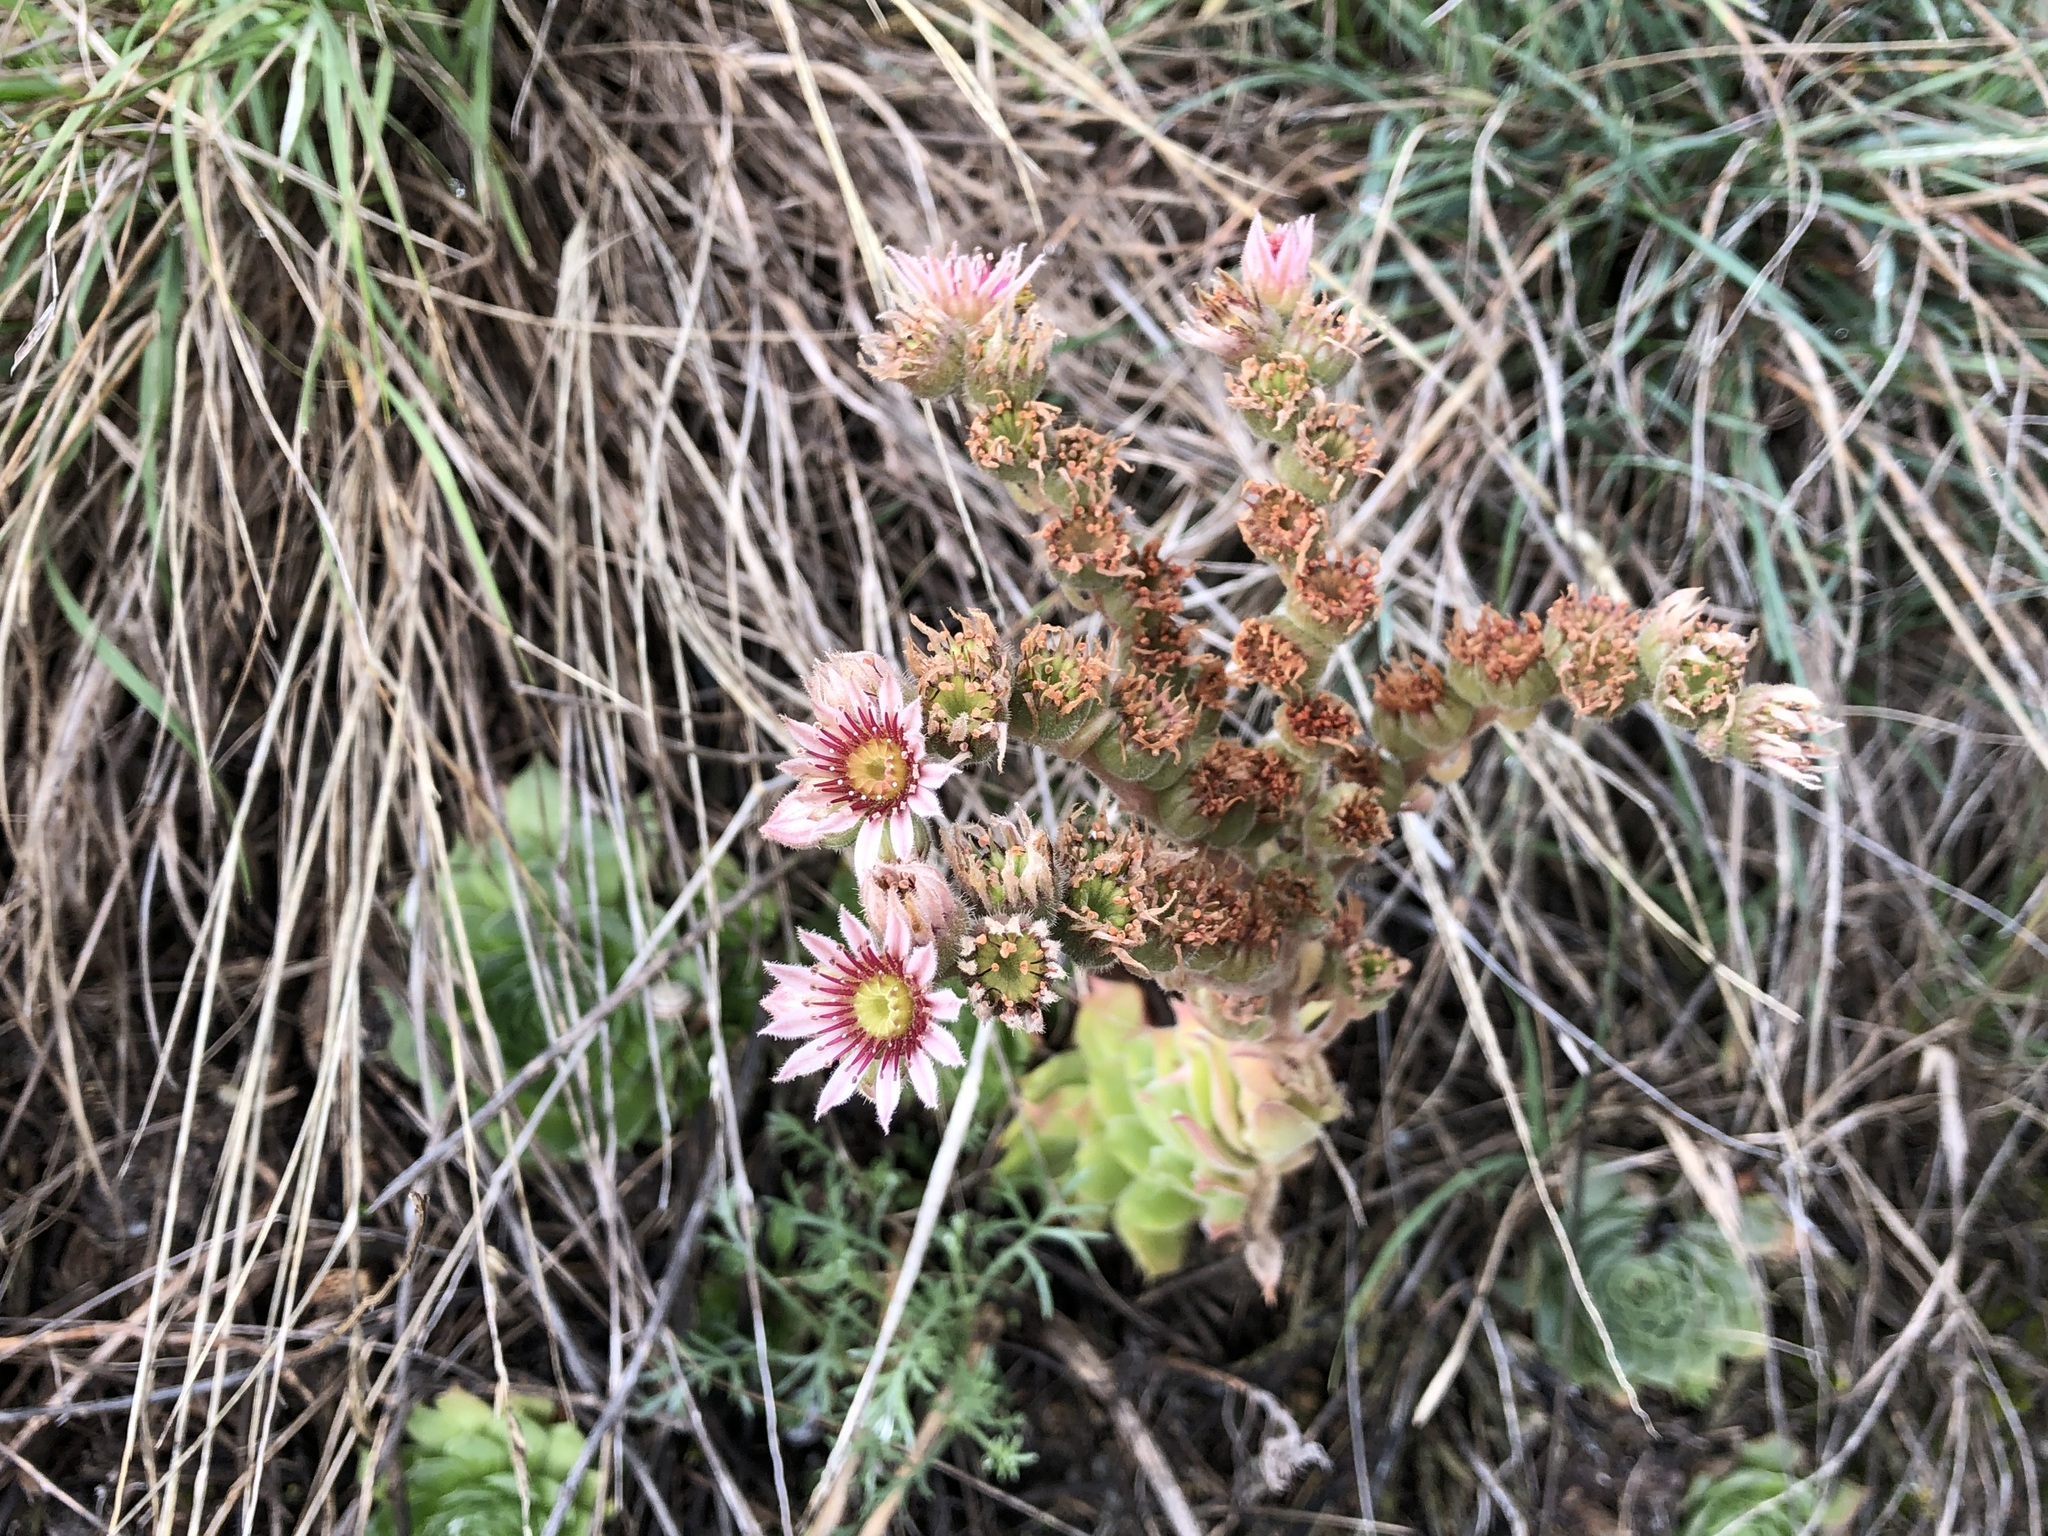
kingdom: Plantae
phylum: Tracheophyta
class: Magnoliopsida
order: Saxifragales
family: Crassulaceae
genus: Sempervivum
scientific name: Sempervivum tectorum
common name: House-leek
